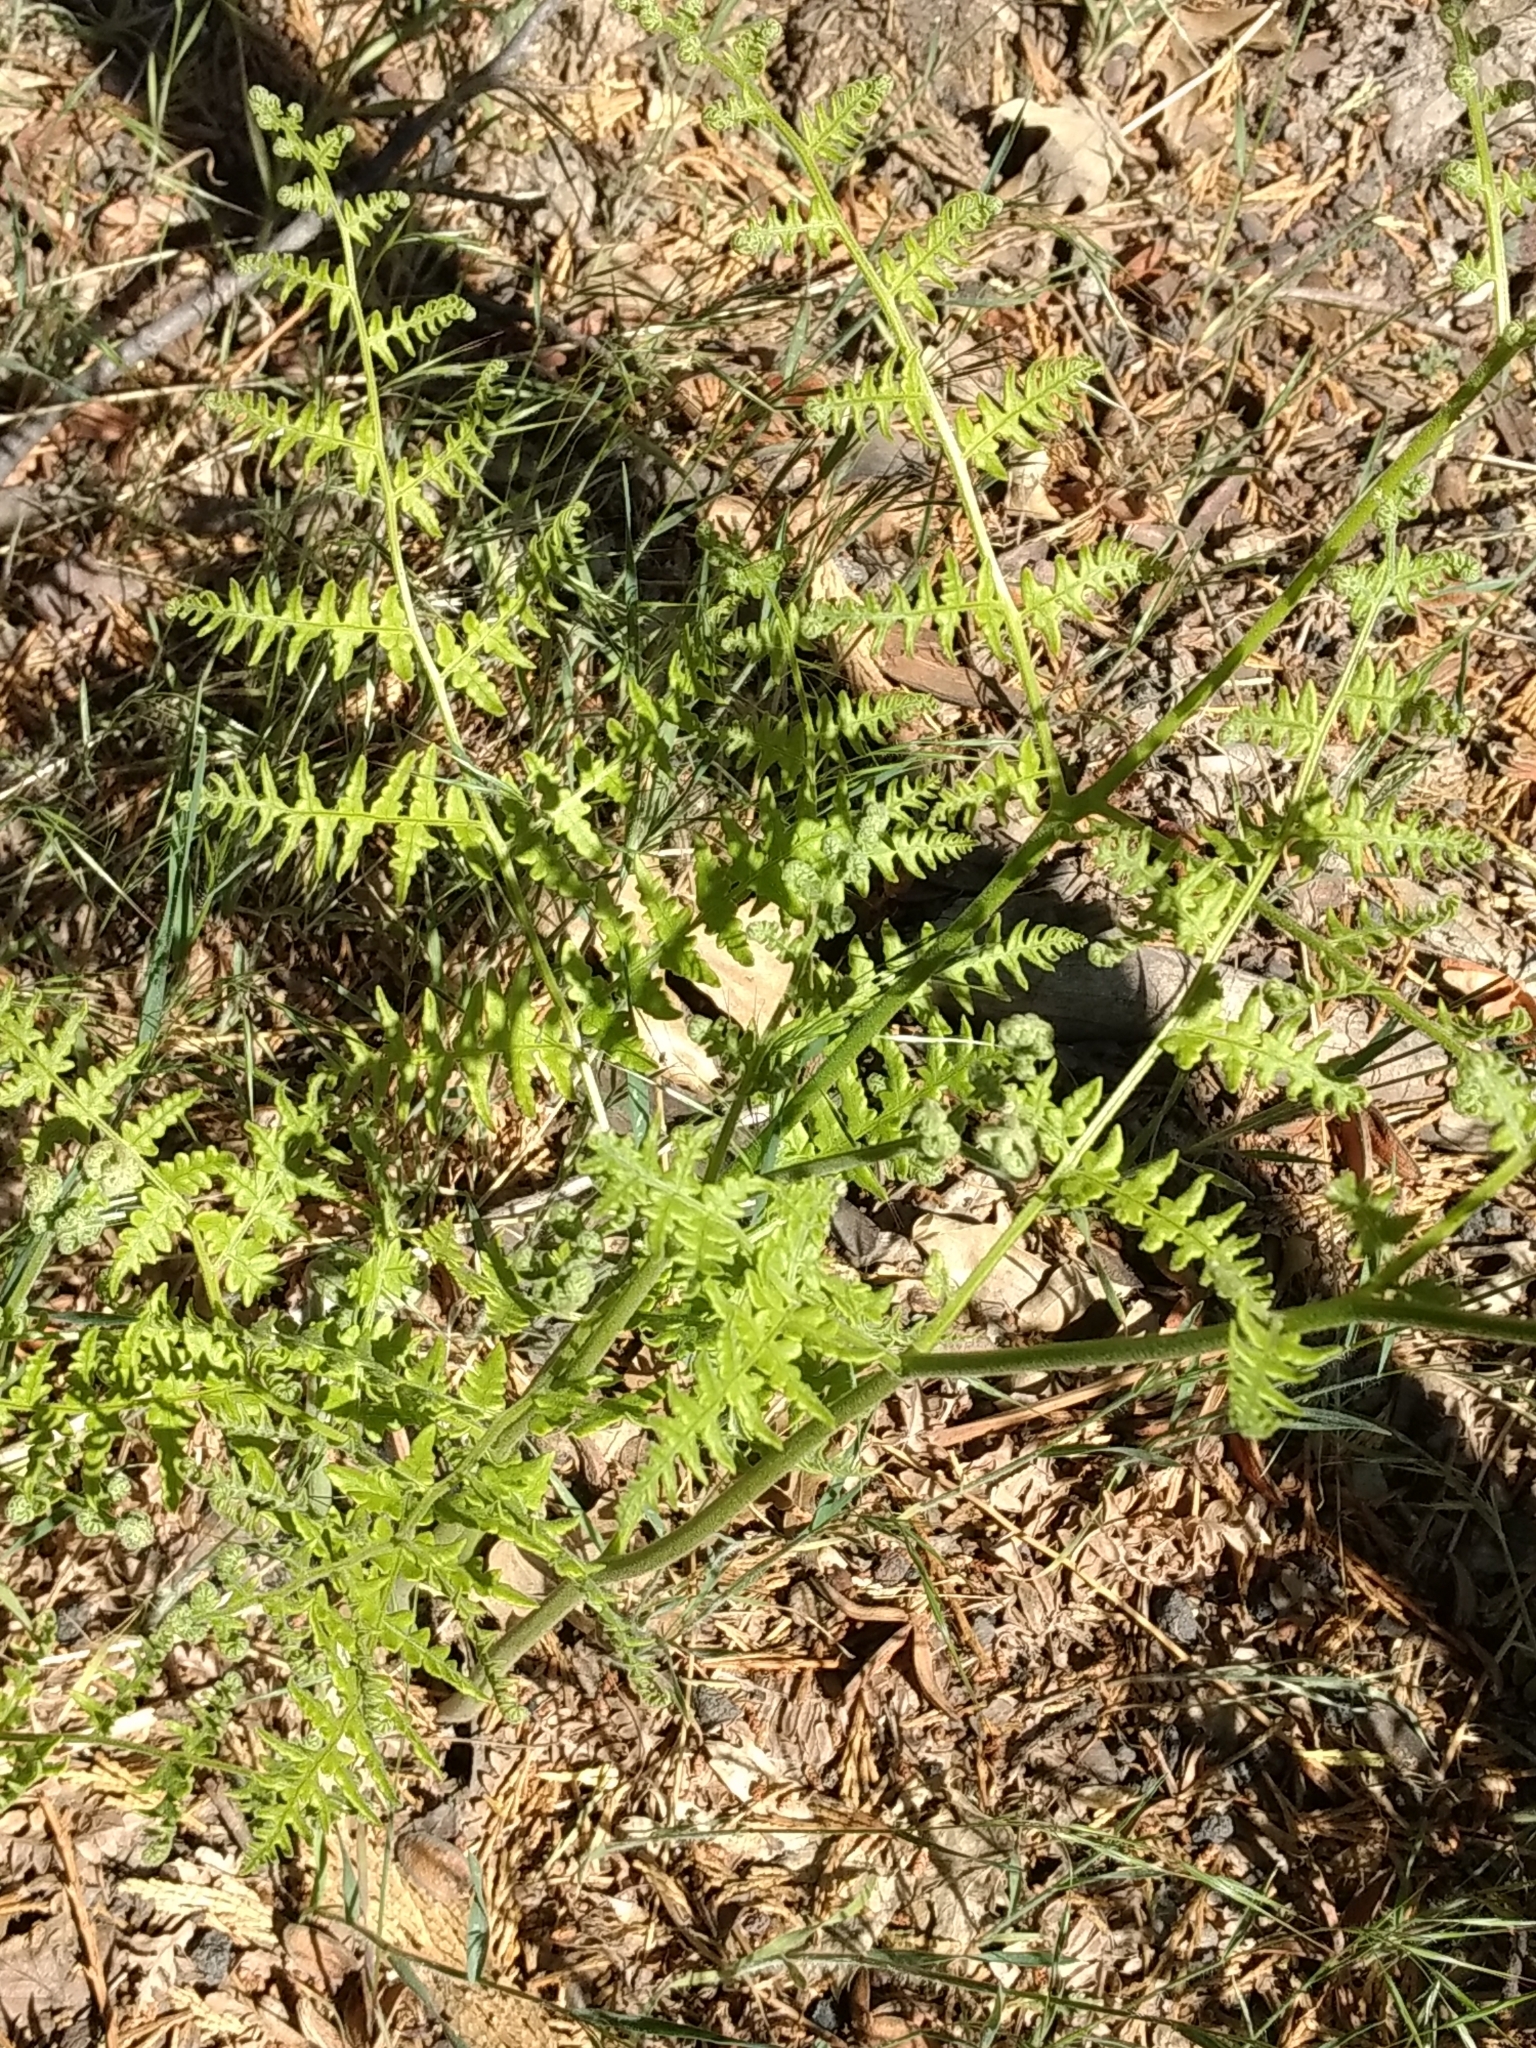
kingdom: Plantae
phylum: Tracheophyta
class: Polypodiopsida
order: Polypodiales
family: Dennstaedtiaceae
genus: Pteridium
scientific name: Pteridium aquilinum
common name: Bracken
